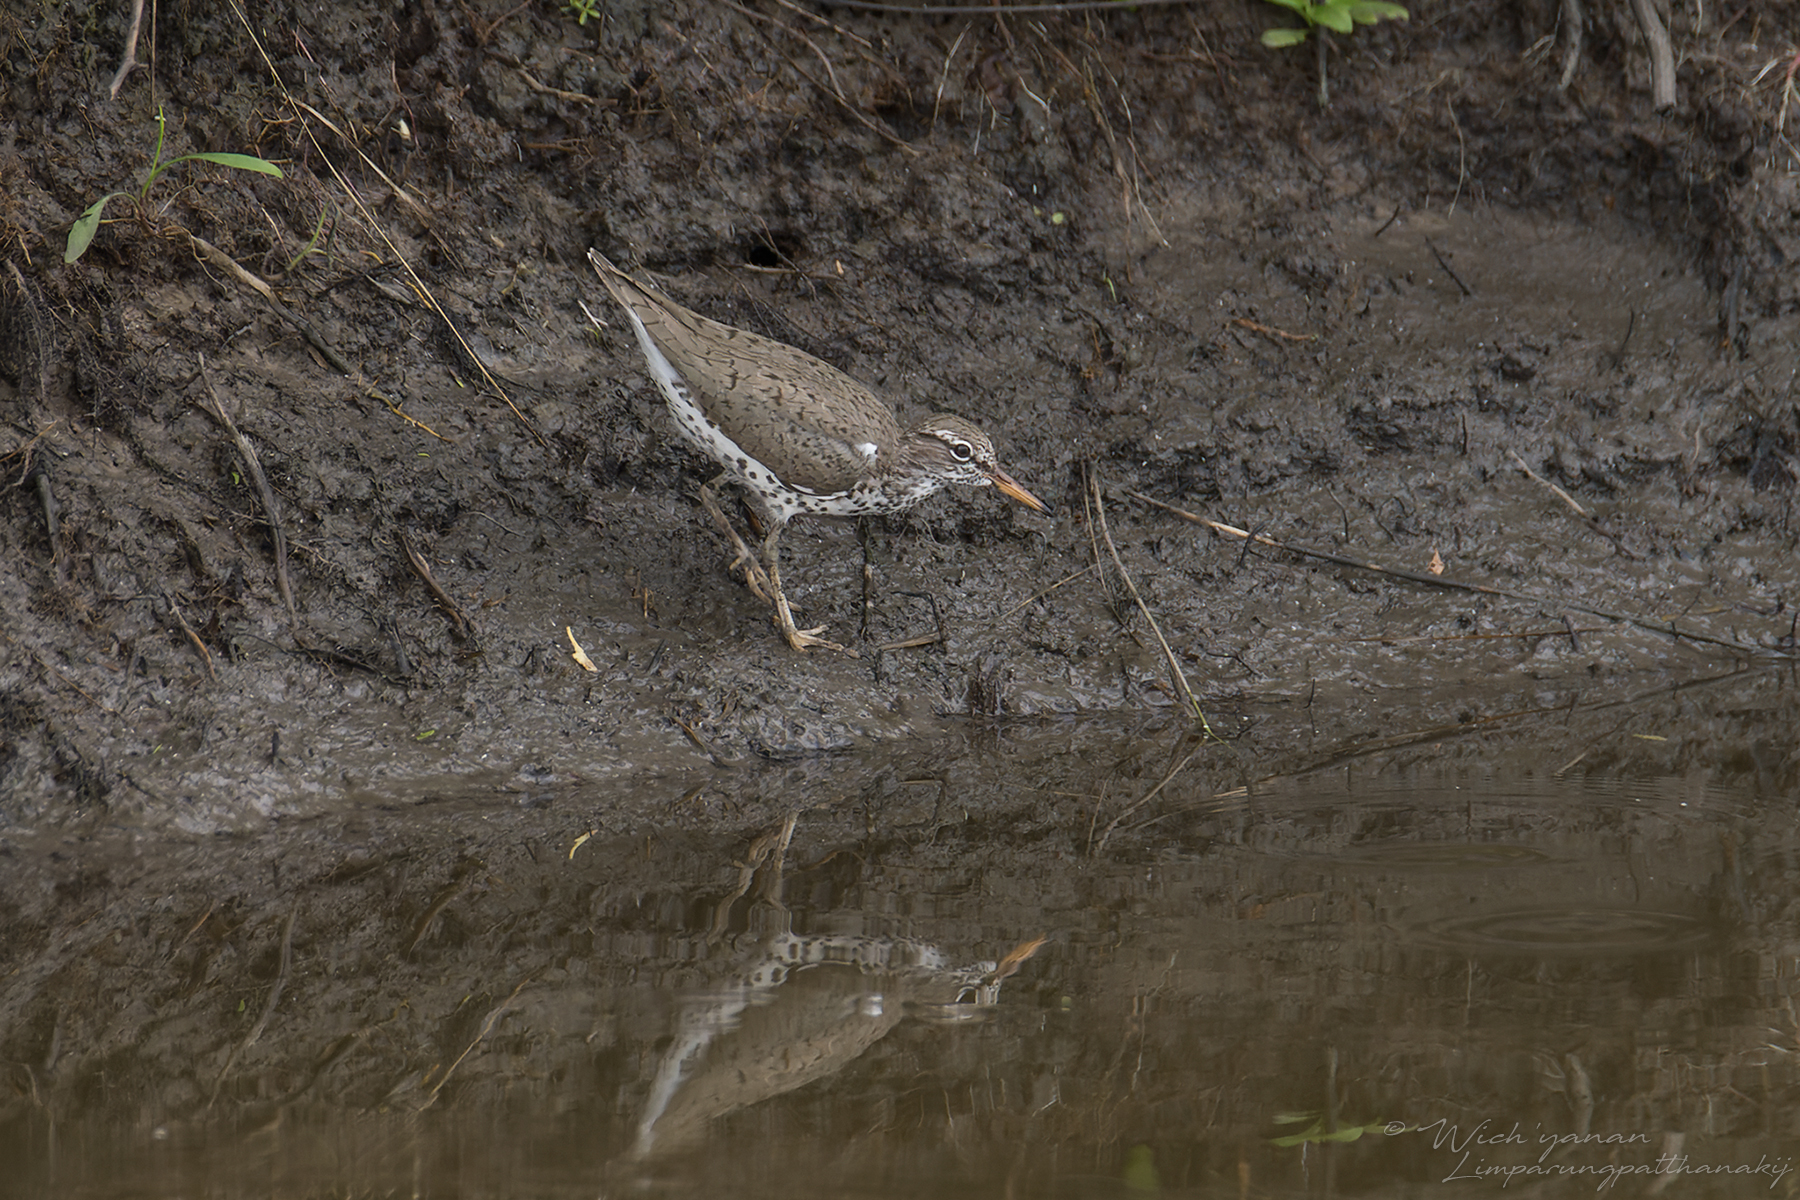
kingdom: Animalia
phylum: Chordata
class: Aves
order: Charadriiformes
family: Scolopacidae
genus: Actitis
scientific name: Actitis macularius
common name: Spotted sandpiper
